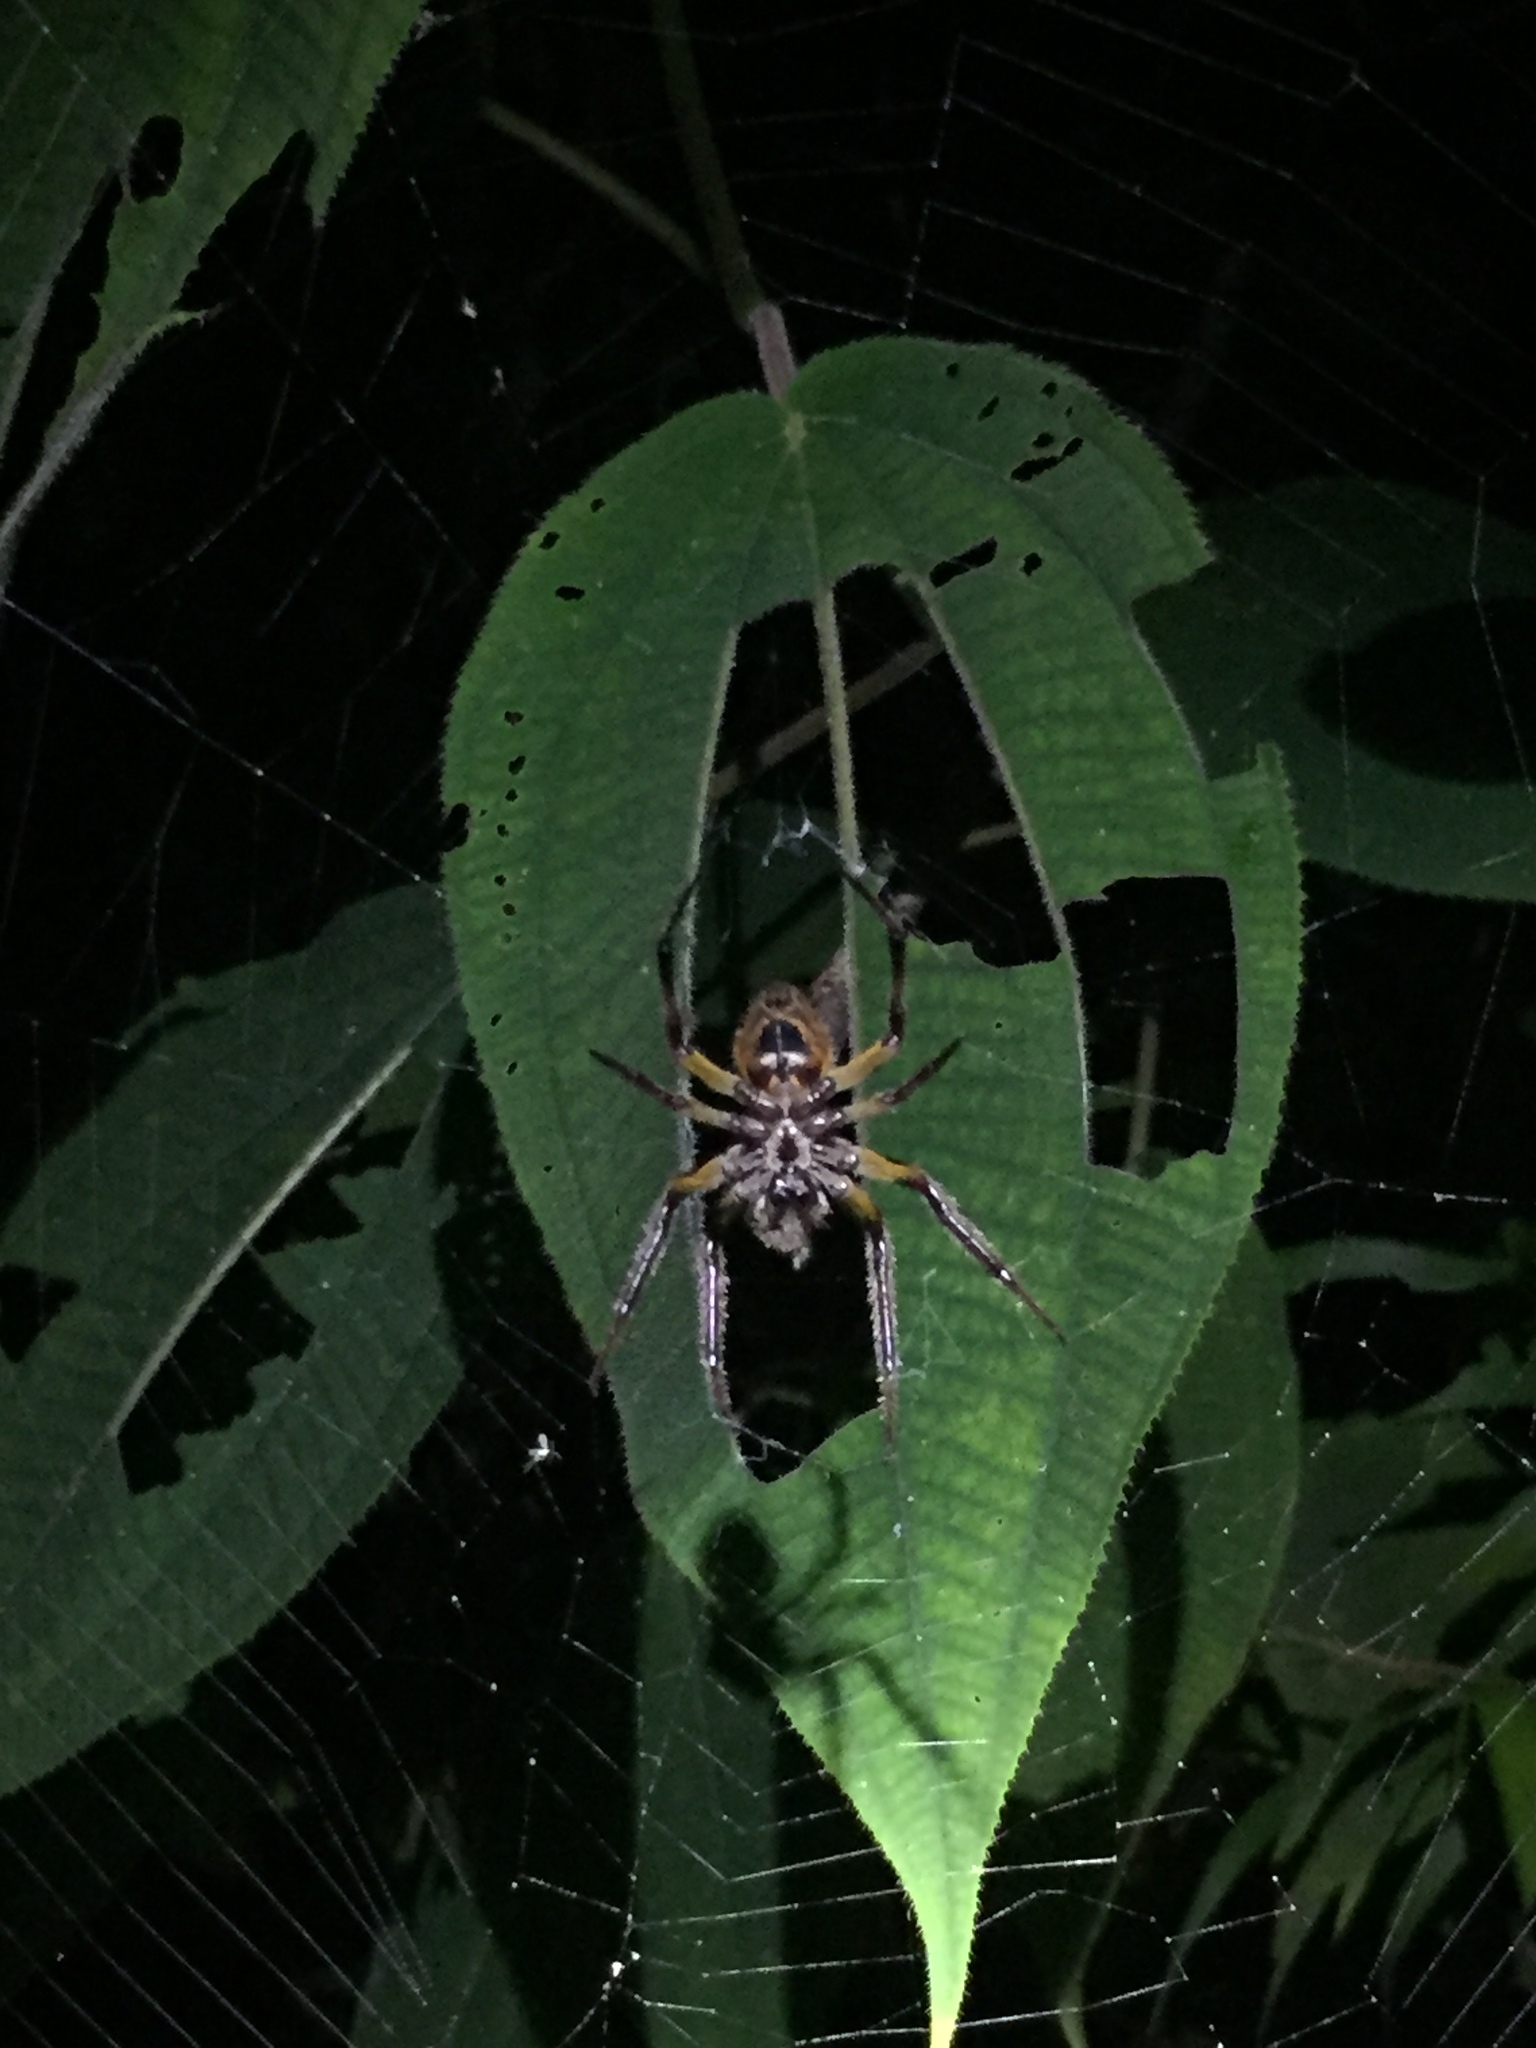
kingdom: Animalia
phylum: Arthropoda
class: Arachnida
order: Araneae
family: Araneidae
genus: Eriophora
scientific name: Eriophora ravilla
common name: Orb weavers
